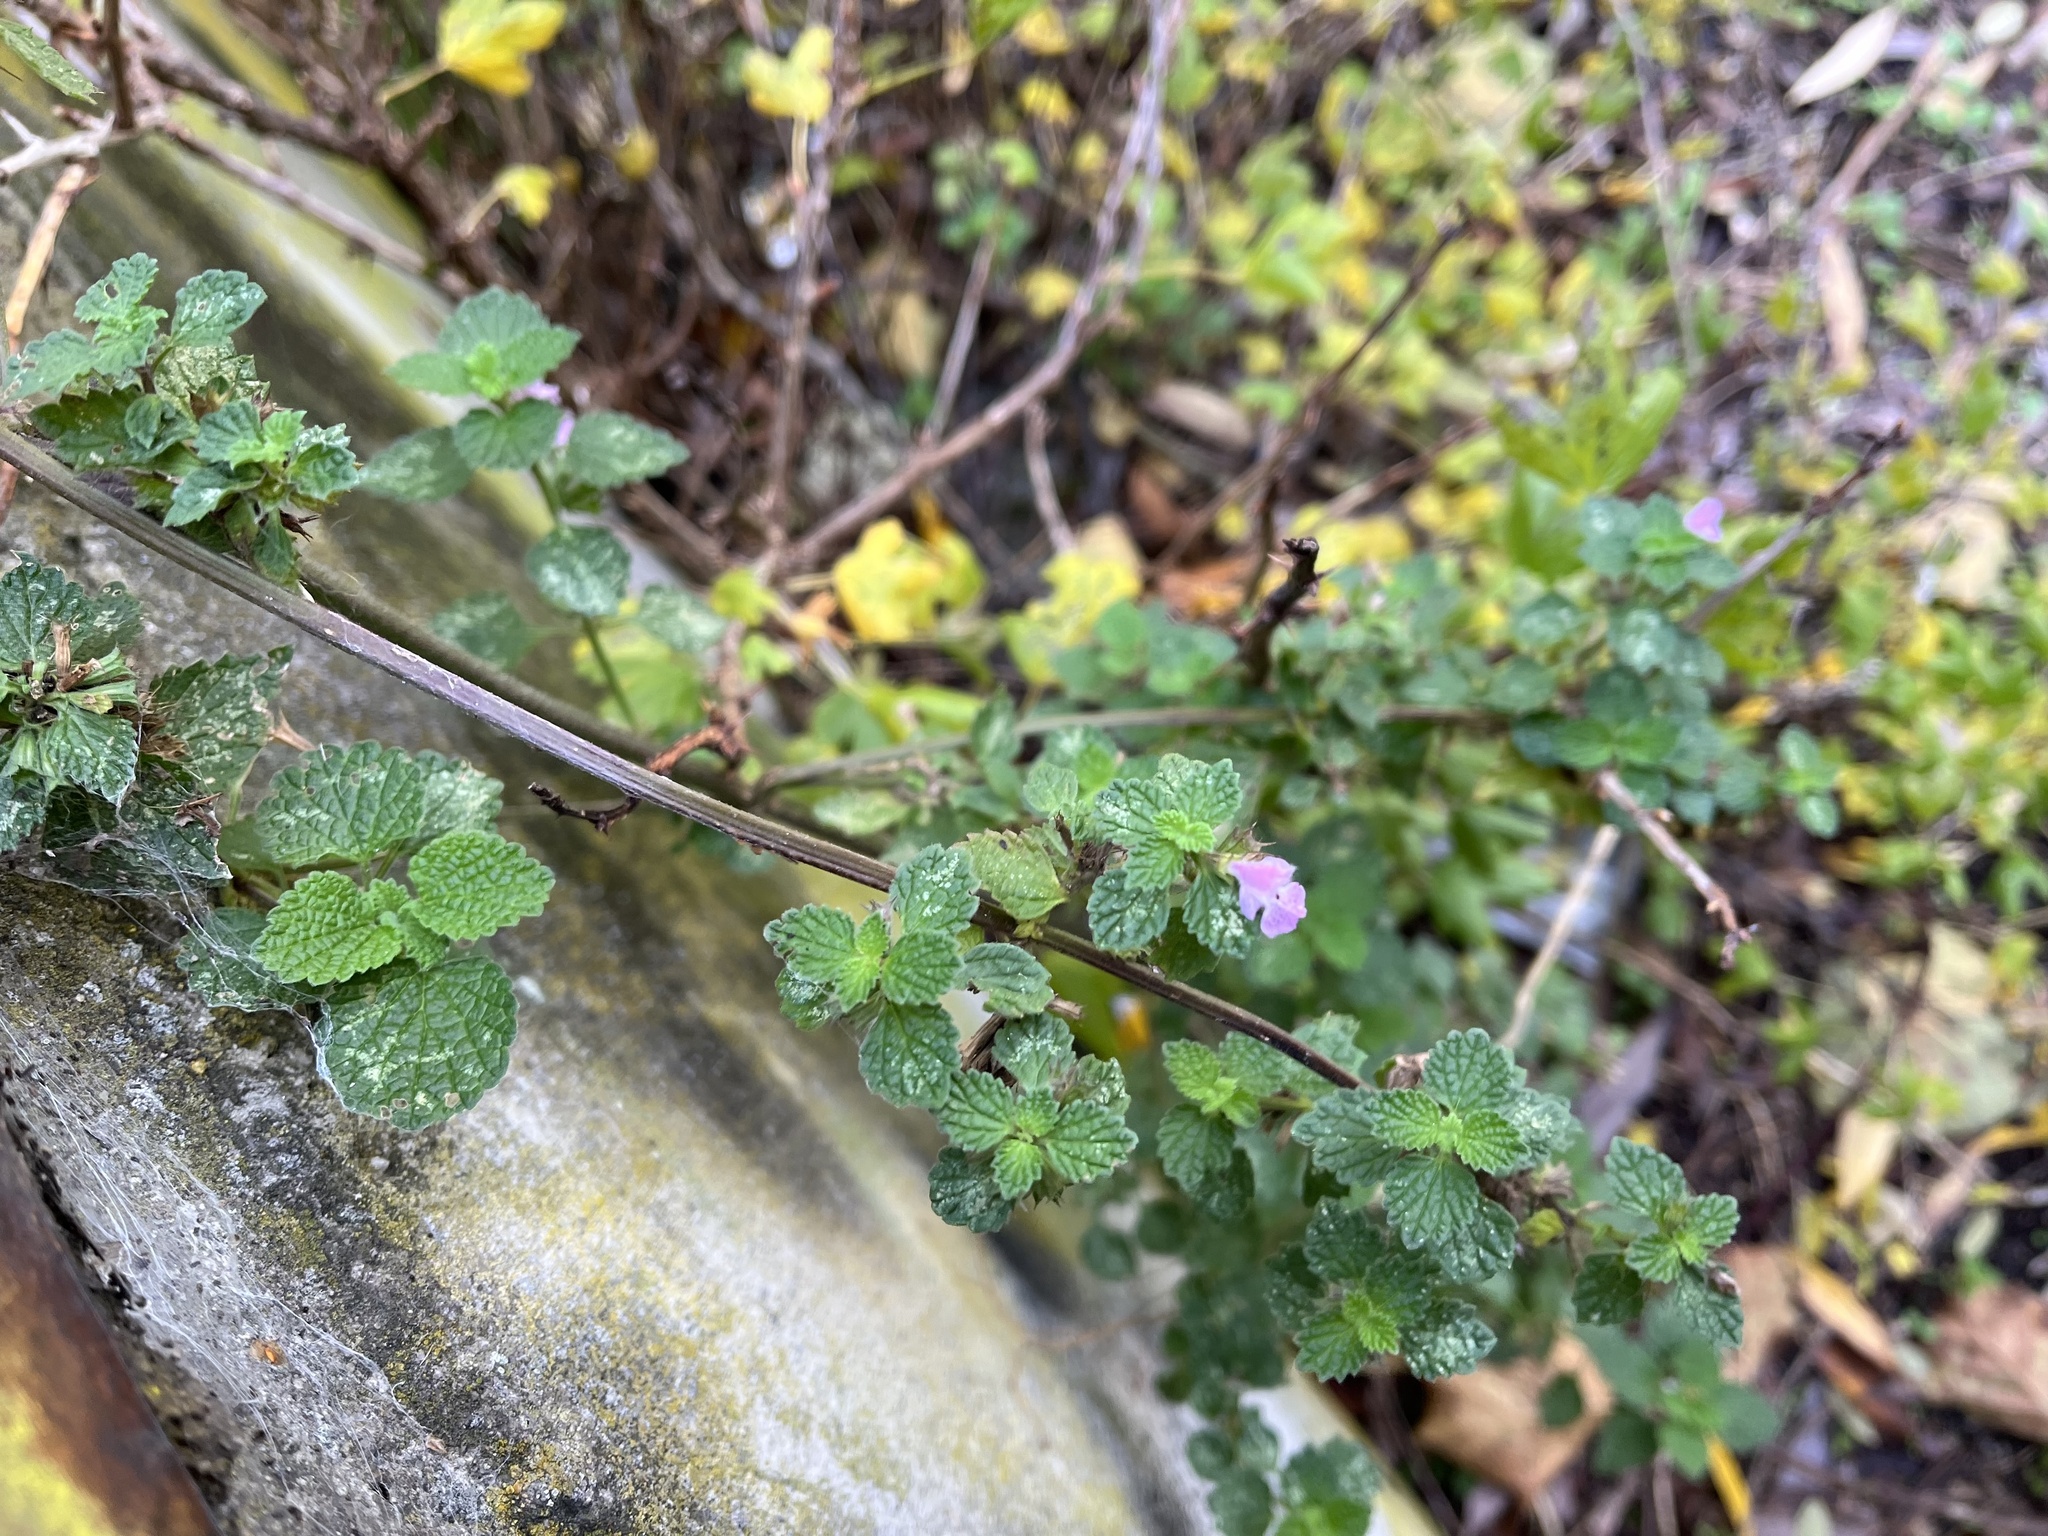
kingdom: Plantae
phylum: Tracheophyta
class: Magnoliopsida
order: Lamiales
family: Lamiaceae
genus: Ballota
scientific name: Ballota nigra
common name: Black horehound
